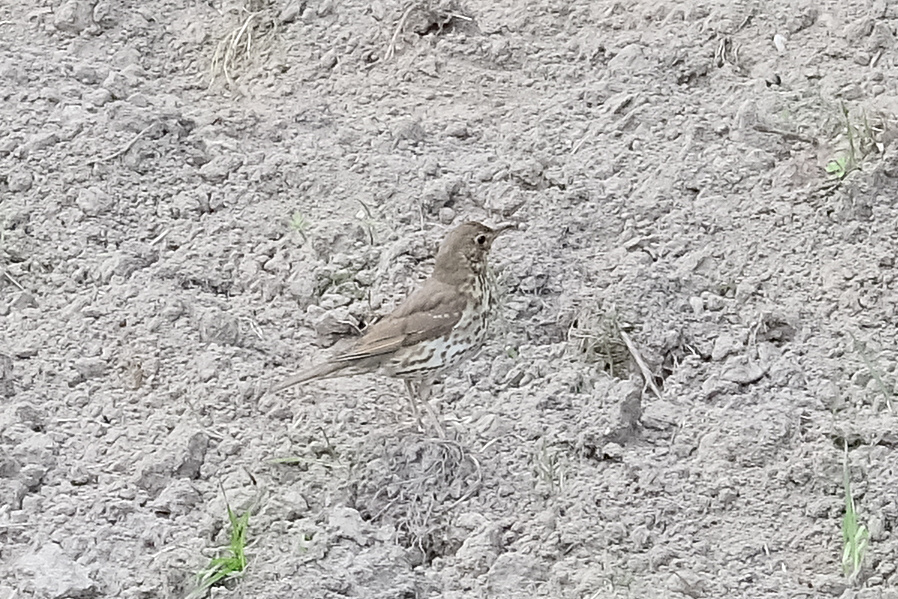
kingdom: Animalia
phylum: Chordata
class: Aves
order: Passeriformes
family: Turdidae
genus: Turdus
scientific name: Turdus philomelos
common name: Song thrush
